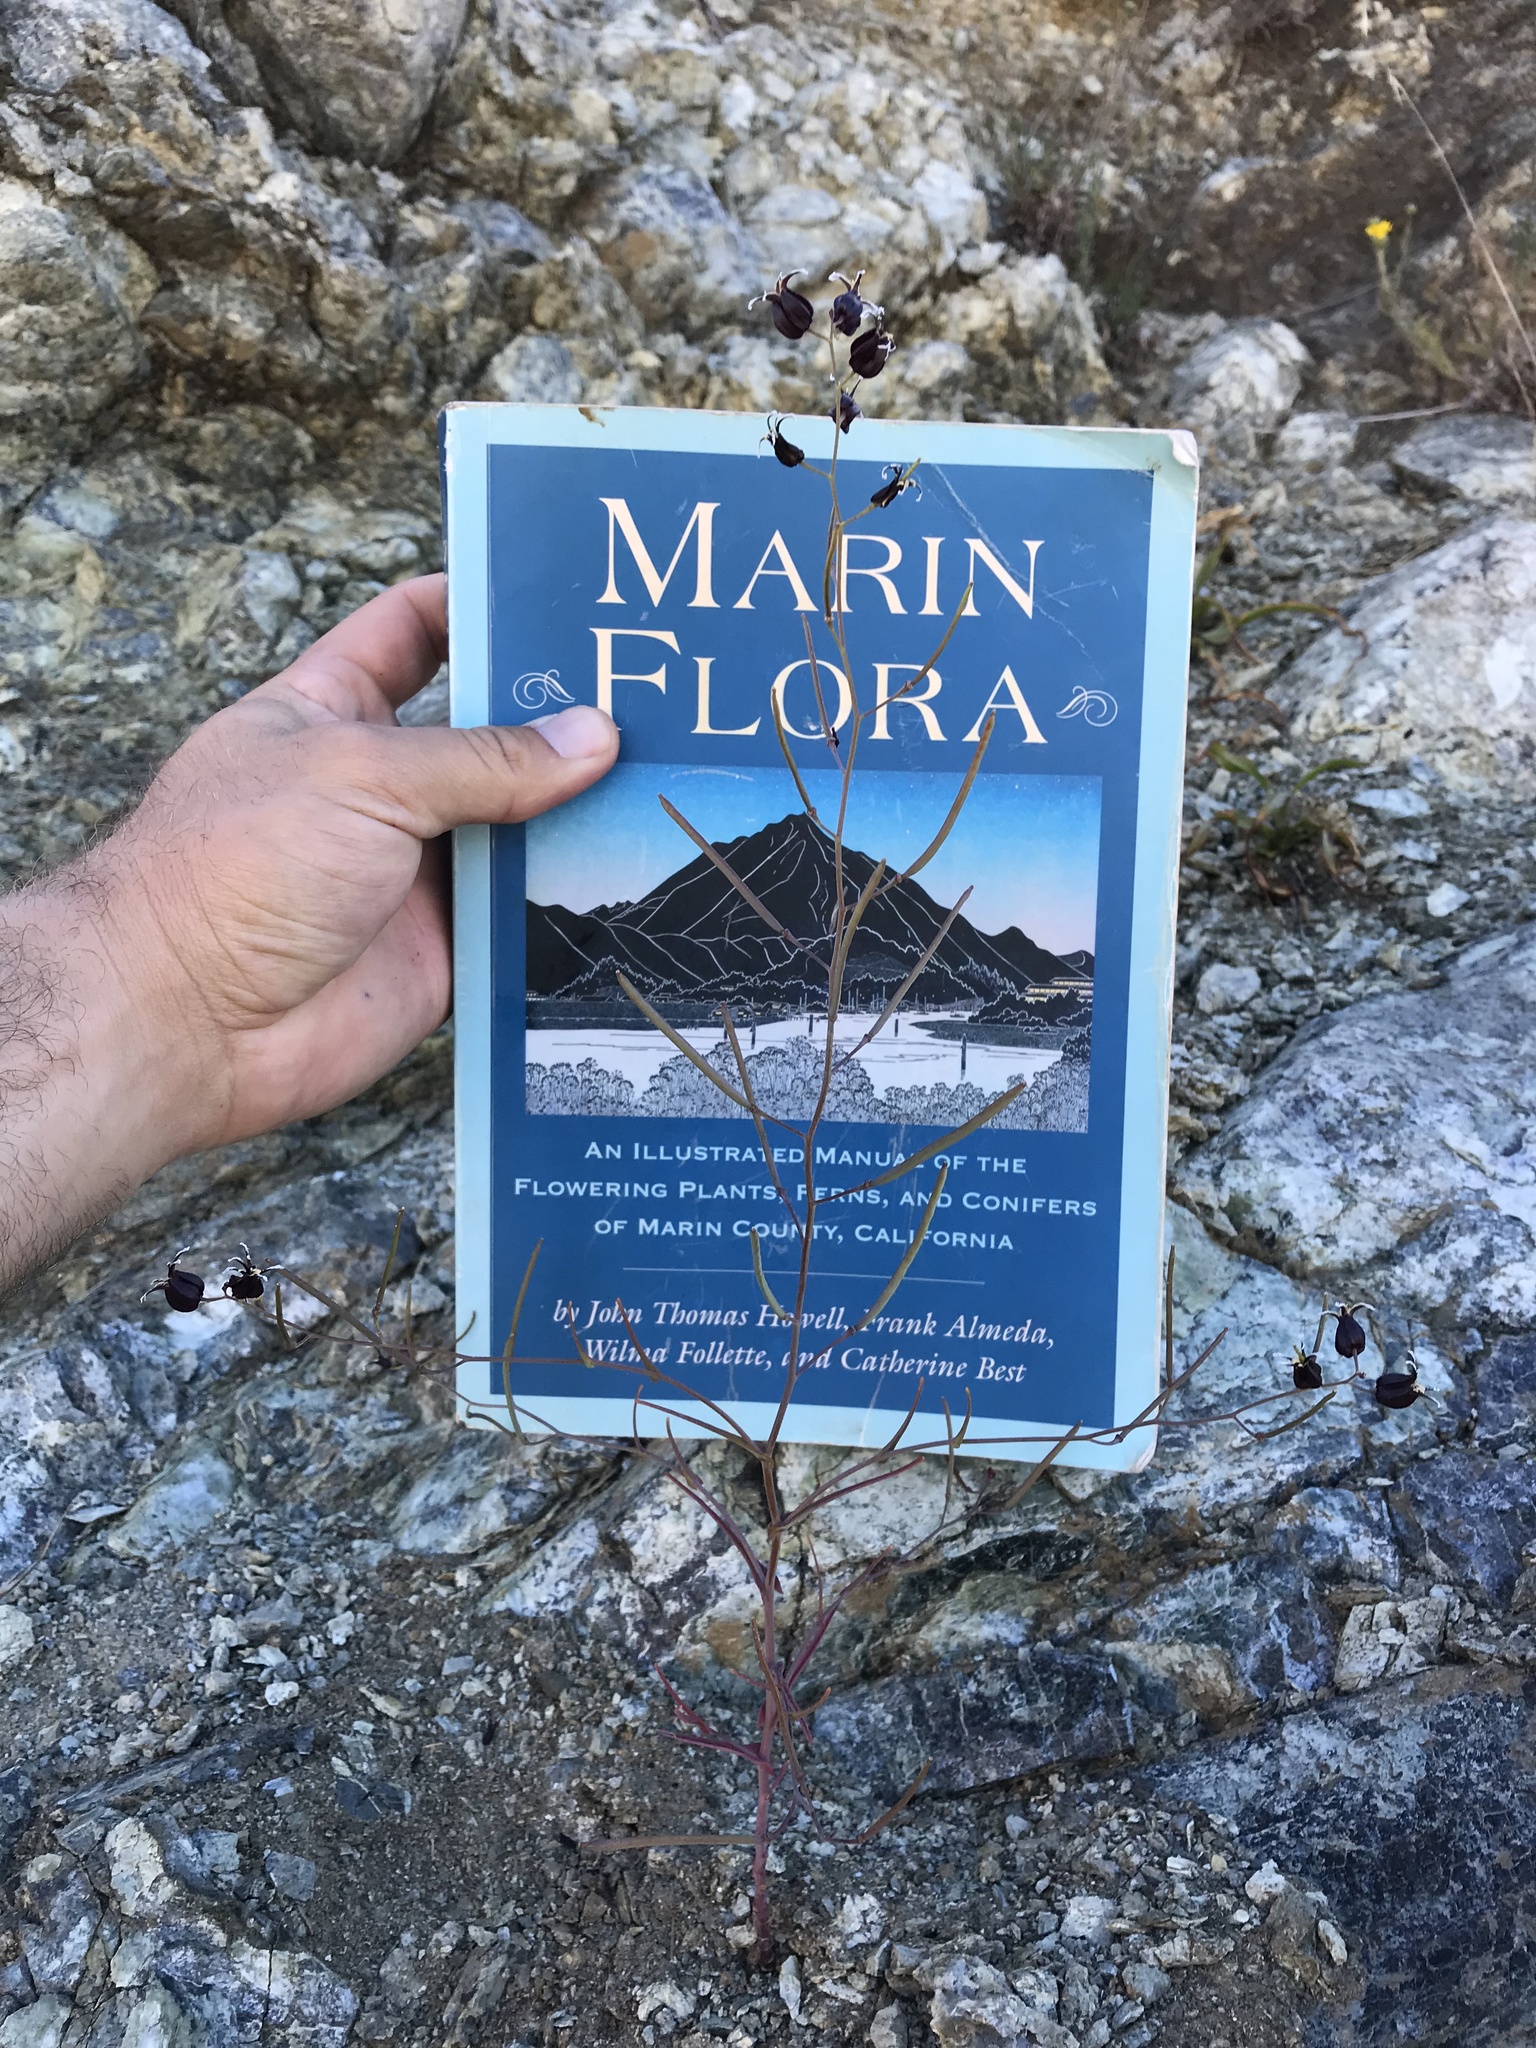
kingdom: Plantae
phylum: Tracheophyta
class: Magnoliopsida
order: Brassicales
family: Brassicaceae
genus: Streptanthus
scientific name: Streptanthus glandulosus
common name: Jewel-flower
